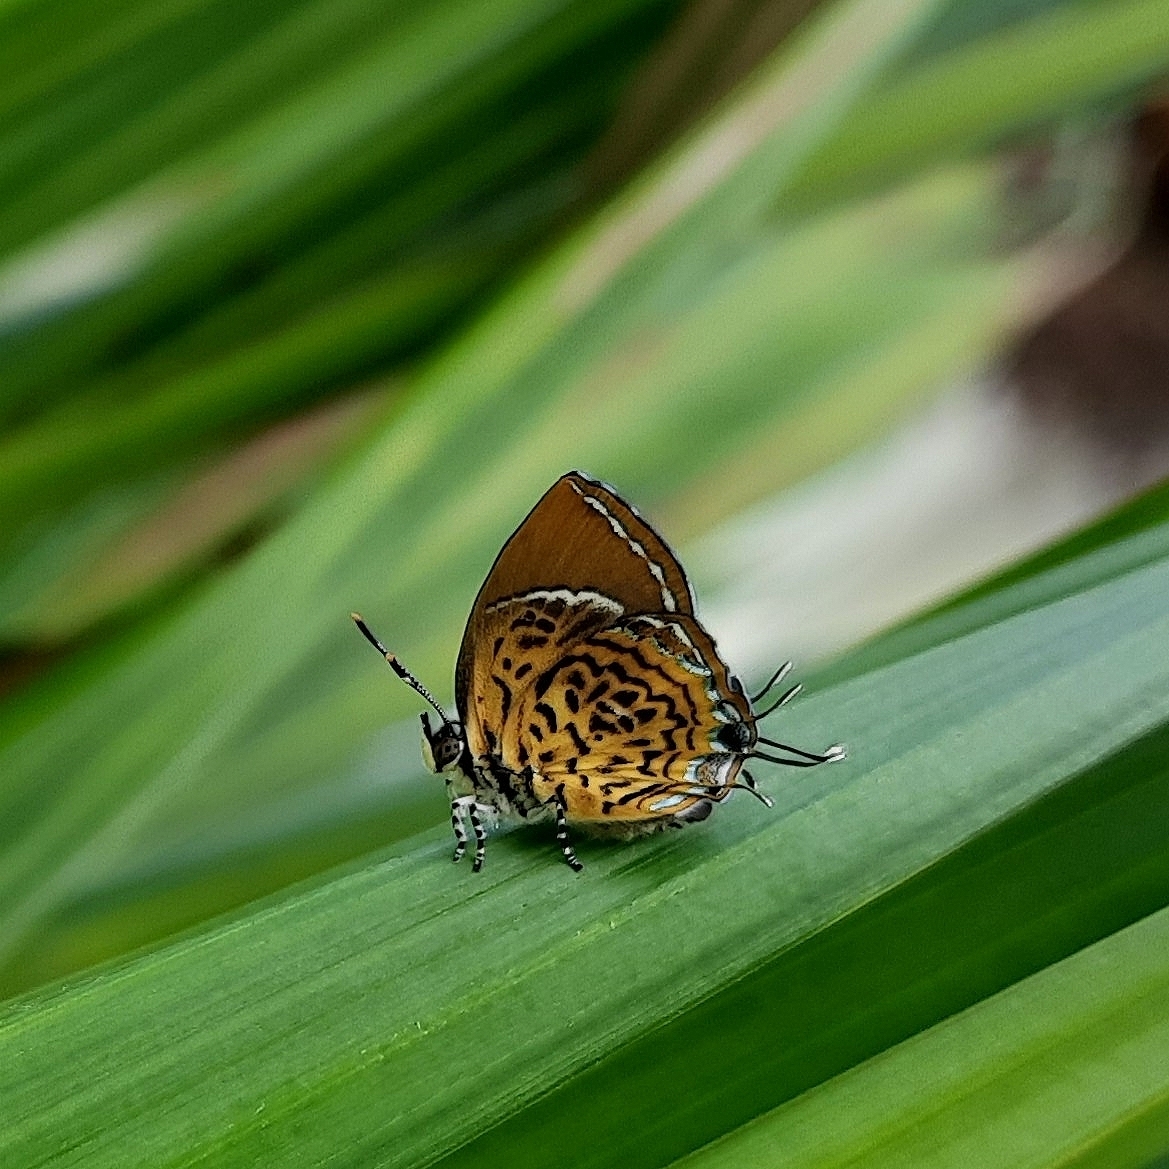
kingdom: Animalia
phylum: Arthropoda
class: Insecta
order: Lepidoptera
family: Lycaenidae
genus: Rathinda
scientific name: Rathinda amor
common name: Monkey puzzle
